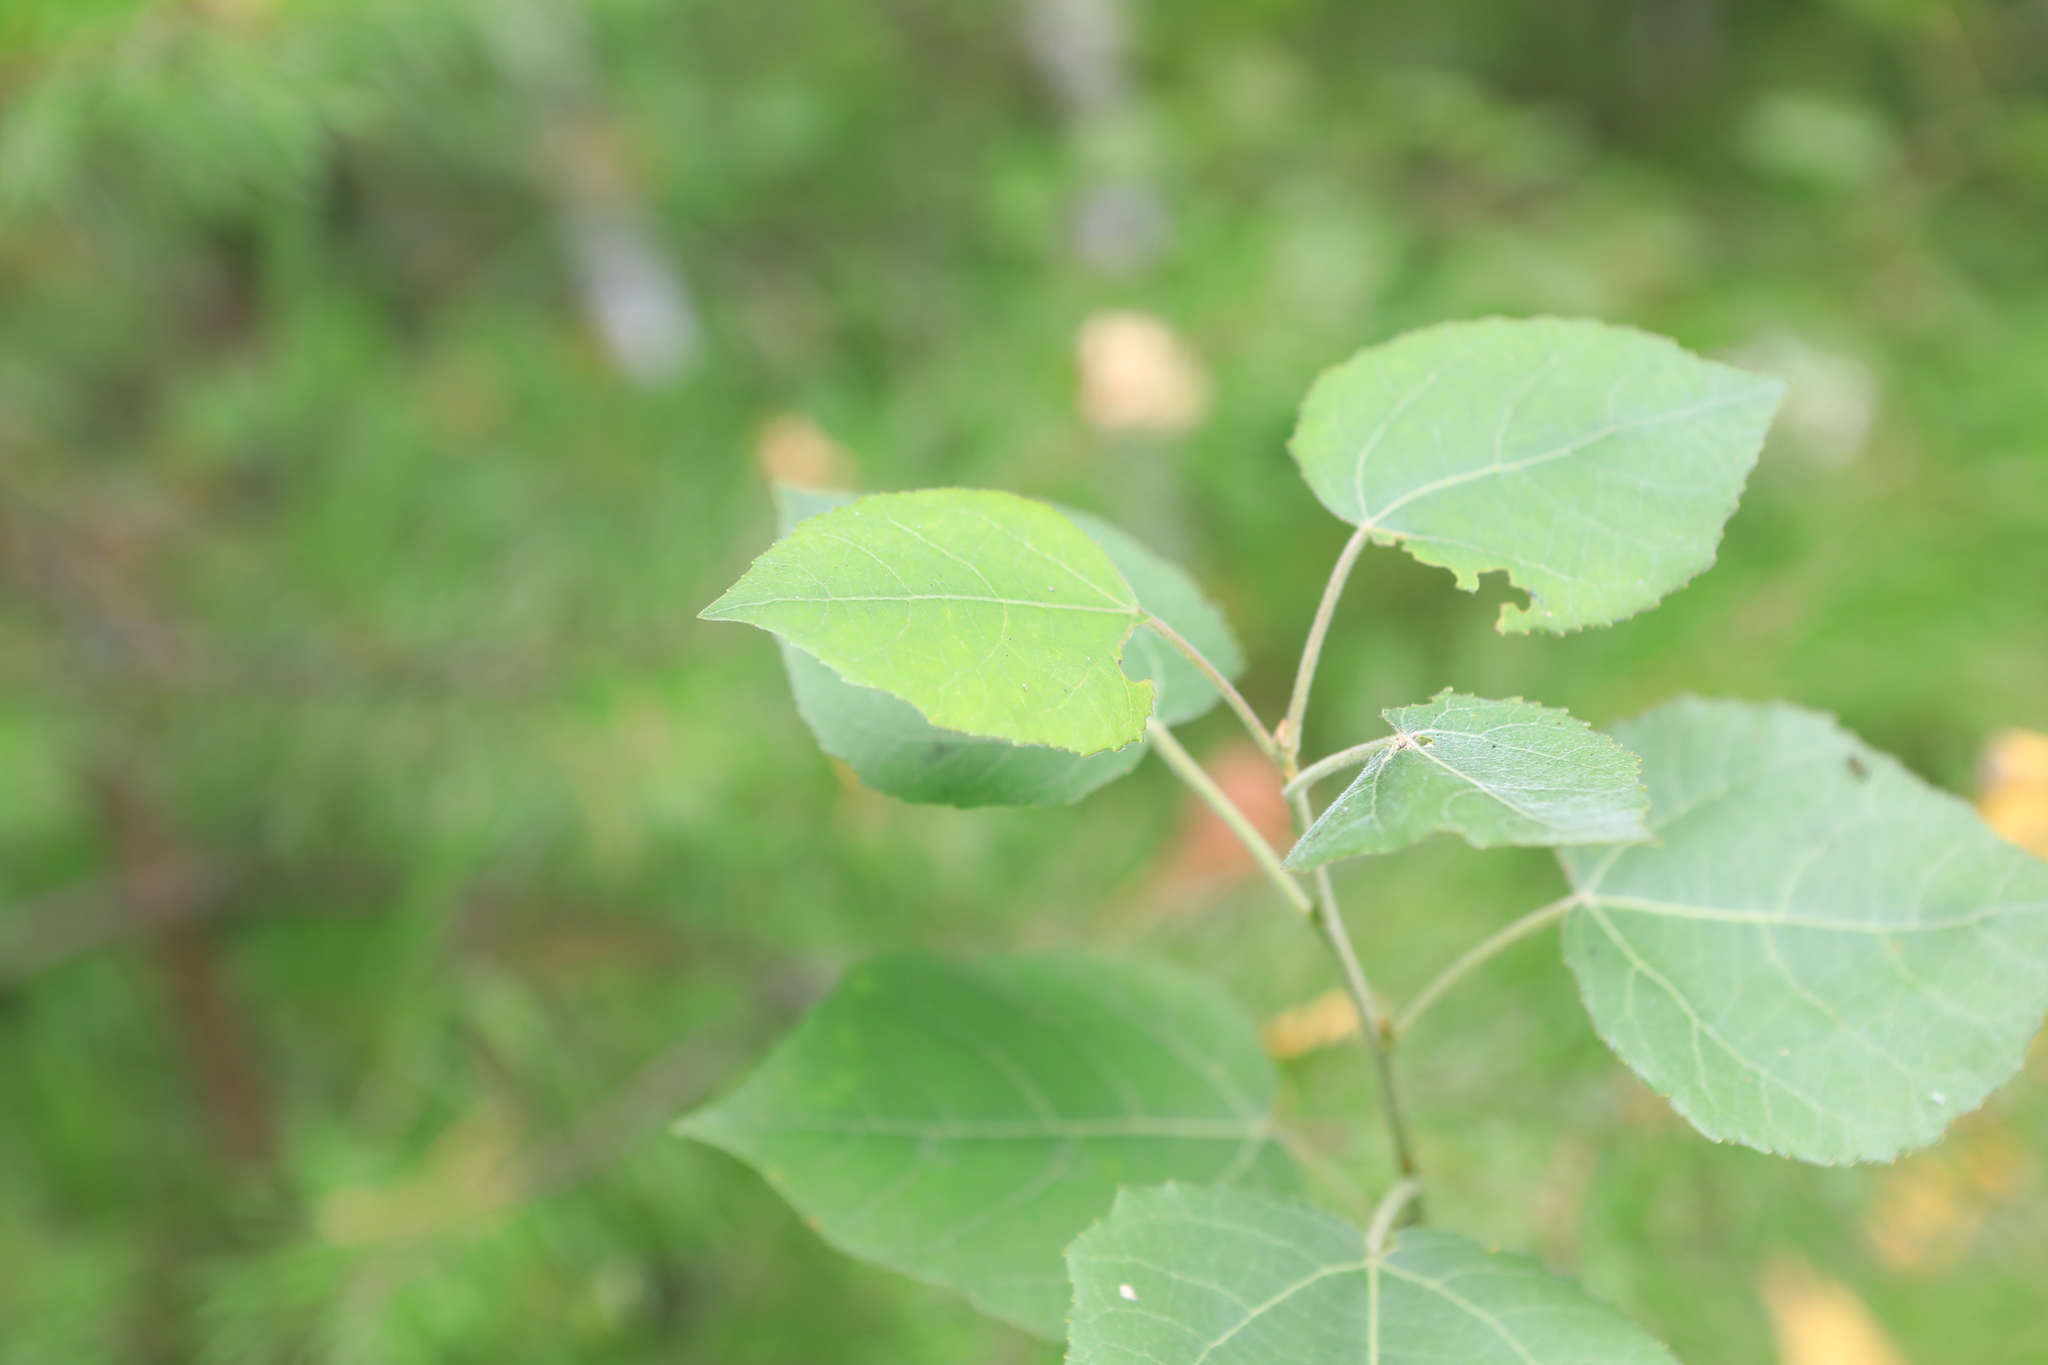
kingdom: Plantae
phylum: Tracheophyta
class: Magnoliopsida
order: Malpighiales
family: Salicaceae
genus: Populus
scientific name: Populus tremula
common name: European aspen
